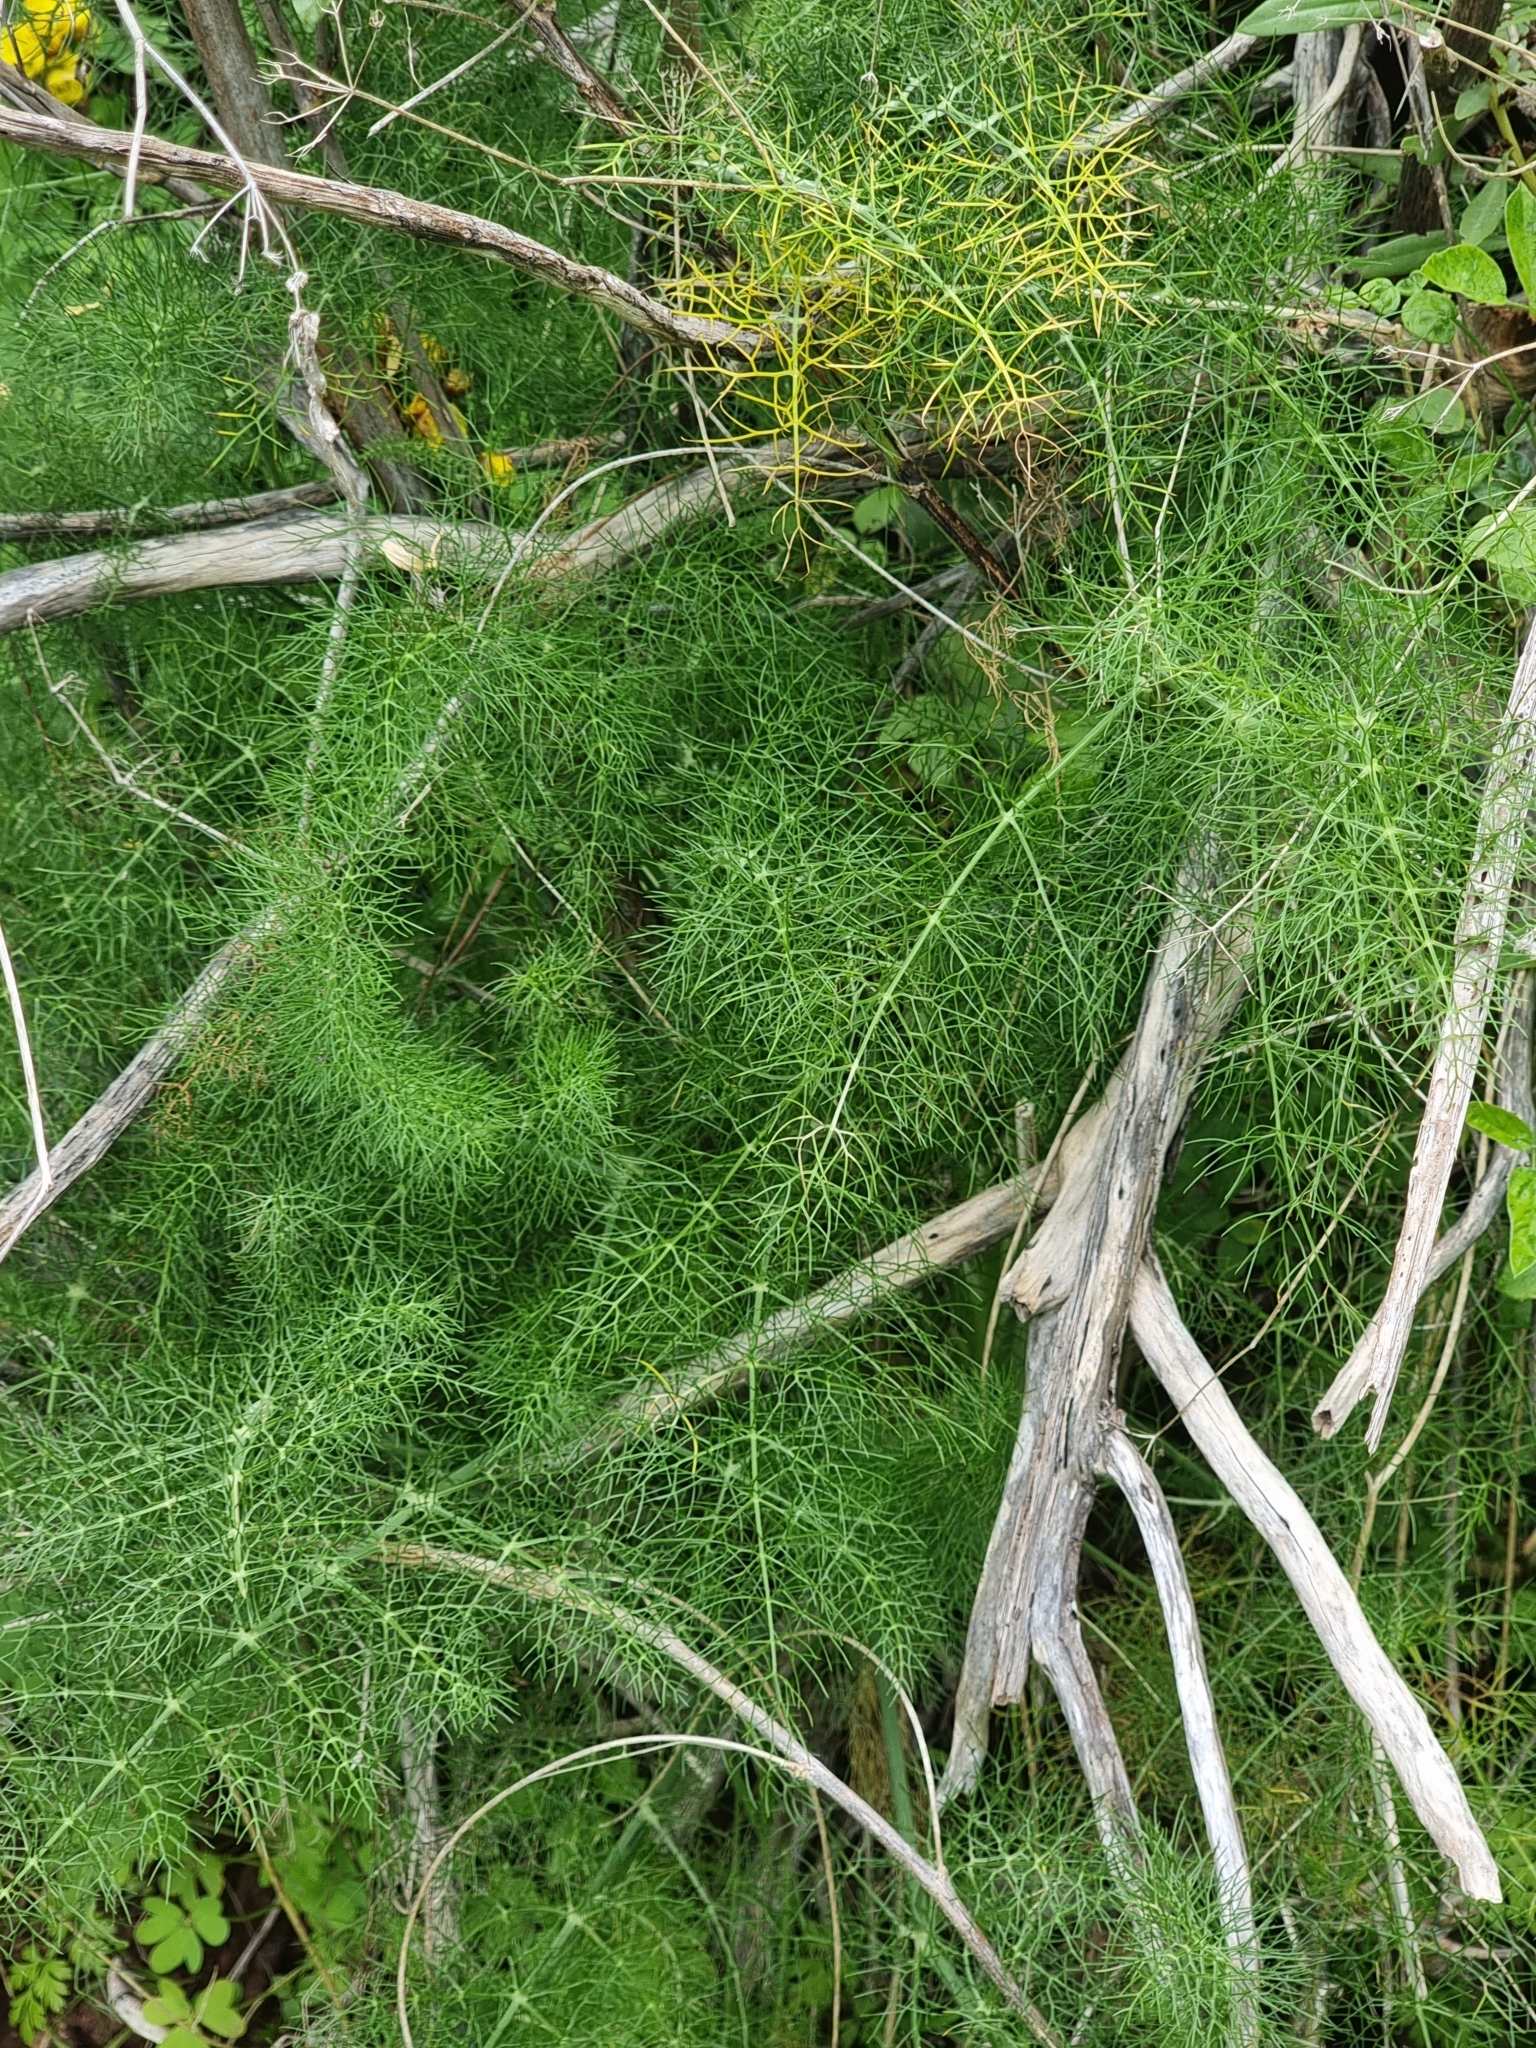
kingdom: Plantae
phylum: Tracheophyta
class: Magnoliopsida
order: Apiales
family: Apiaceae
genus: Foeniculum
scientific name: Foeniculum vulgare
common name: Fennel
